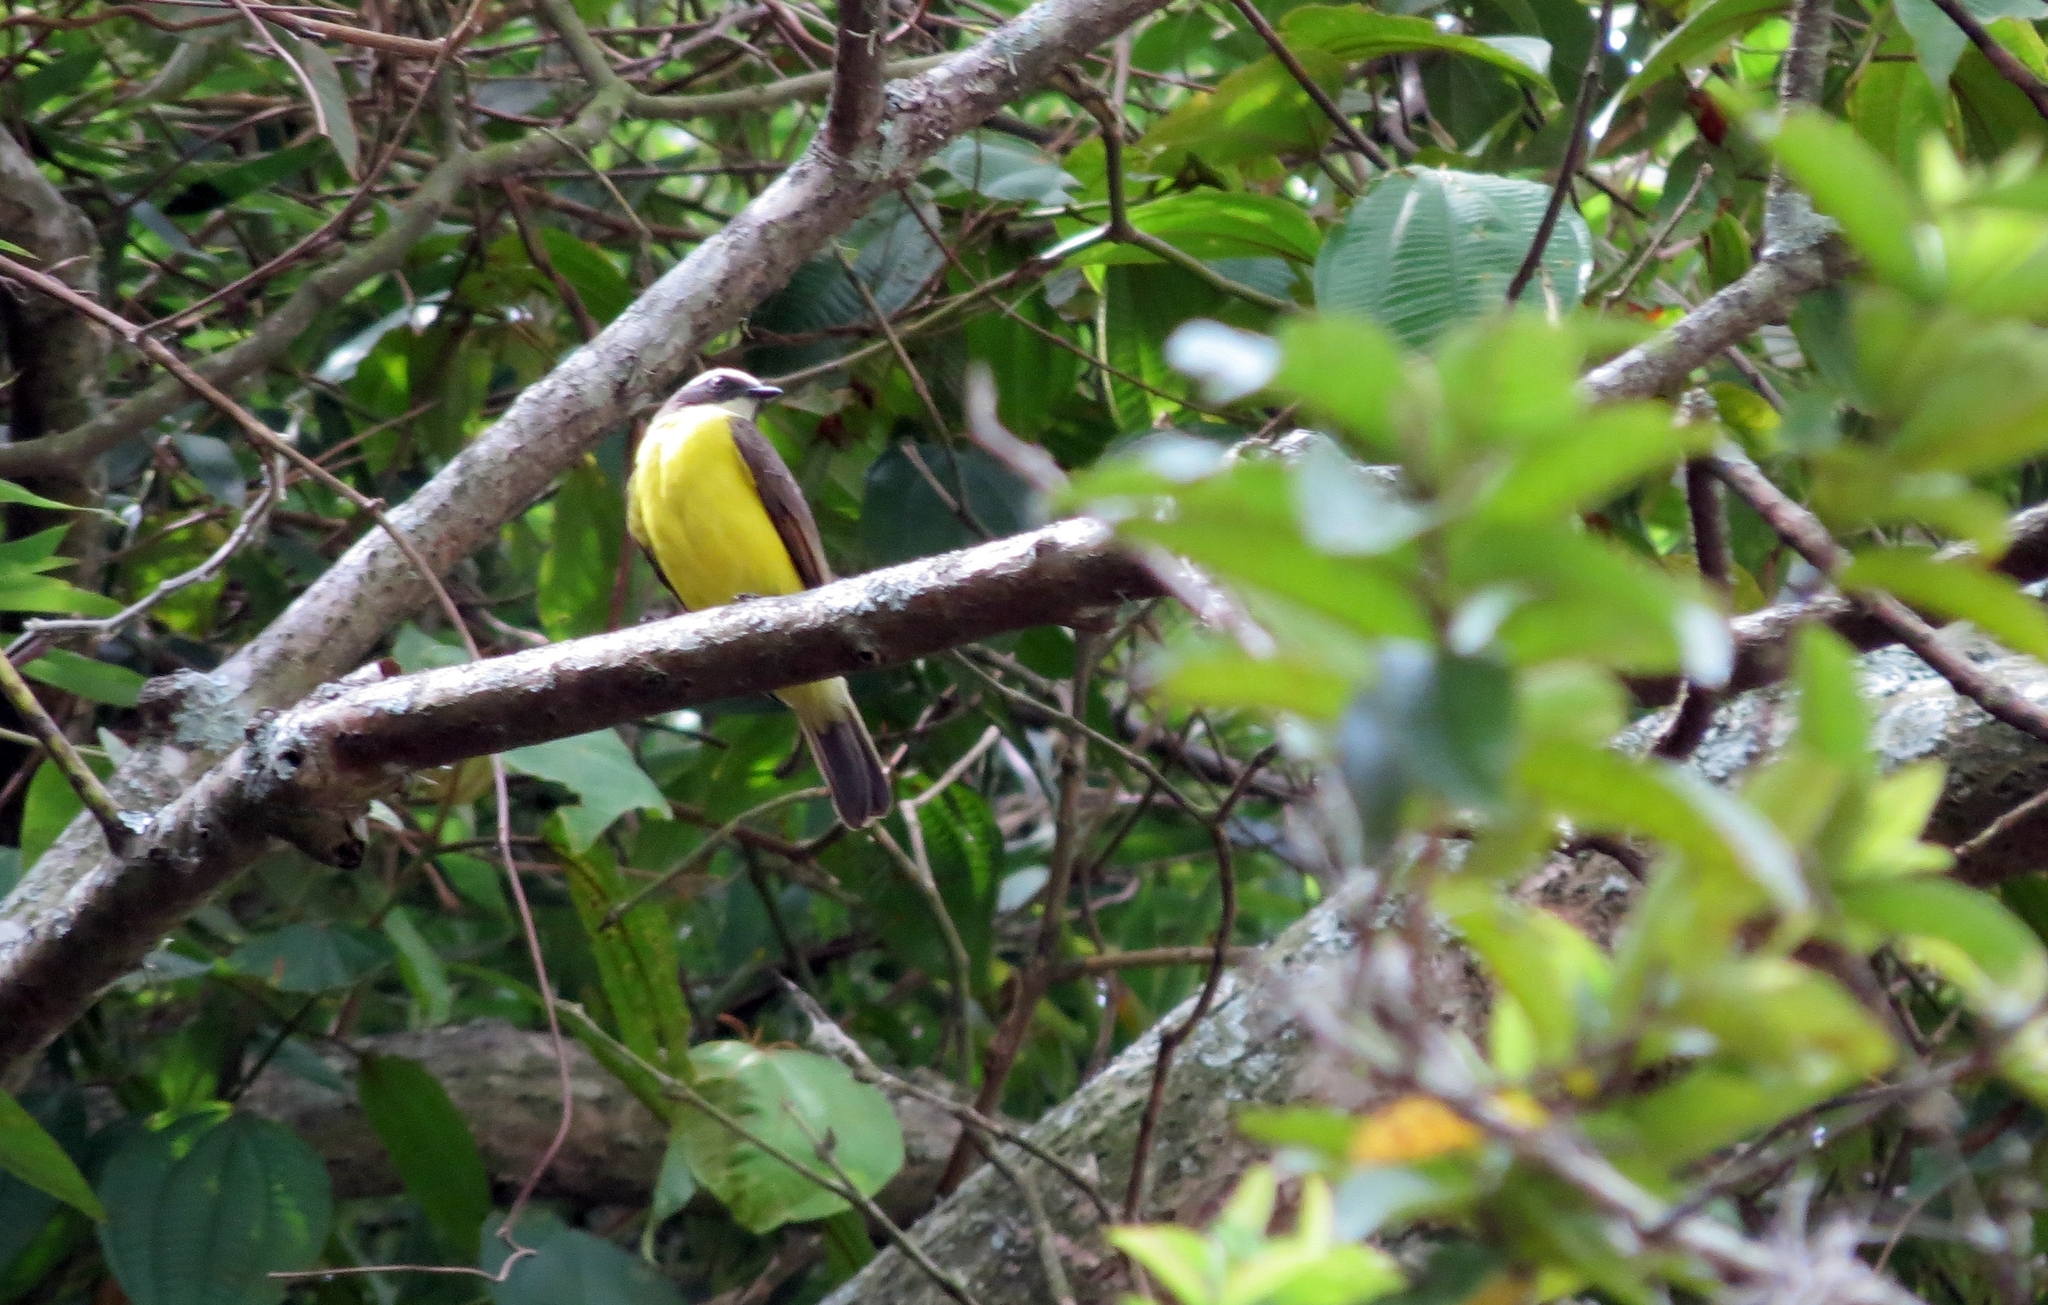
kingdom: Animalia
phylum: Chordata
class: Aves
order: Passeriformes
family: Tyrannidae
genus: Myiozetetes
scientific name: Myiozetetes cayanensis
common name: Rusty-margined flycatcher
